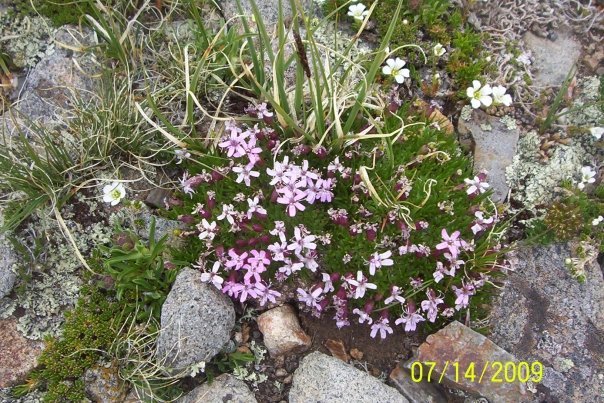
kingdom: Plantae
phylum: Tracheophyta
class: Magnoliopsida
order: Caryophyllales
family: Caryophyllaceae
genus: Silene
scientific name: Silene acaulis
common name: Moss campion
